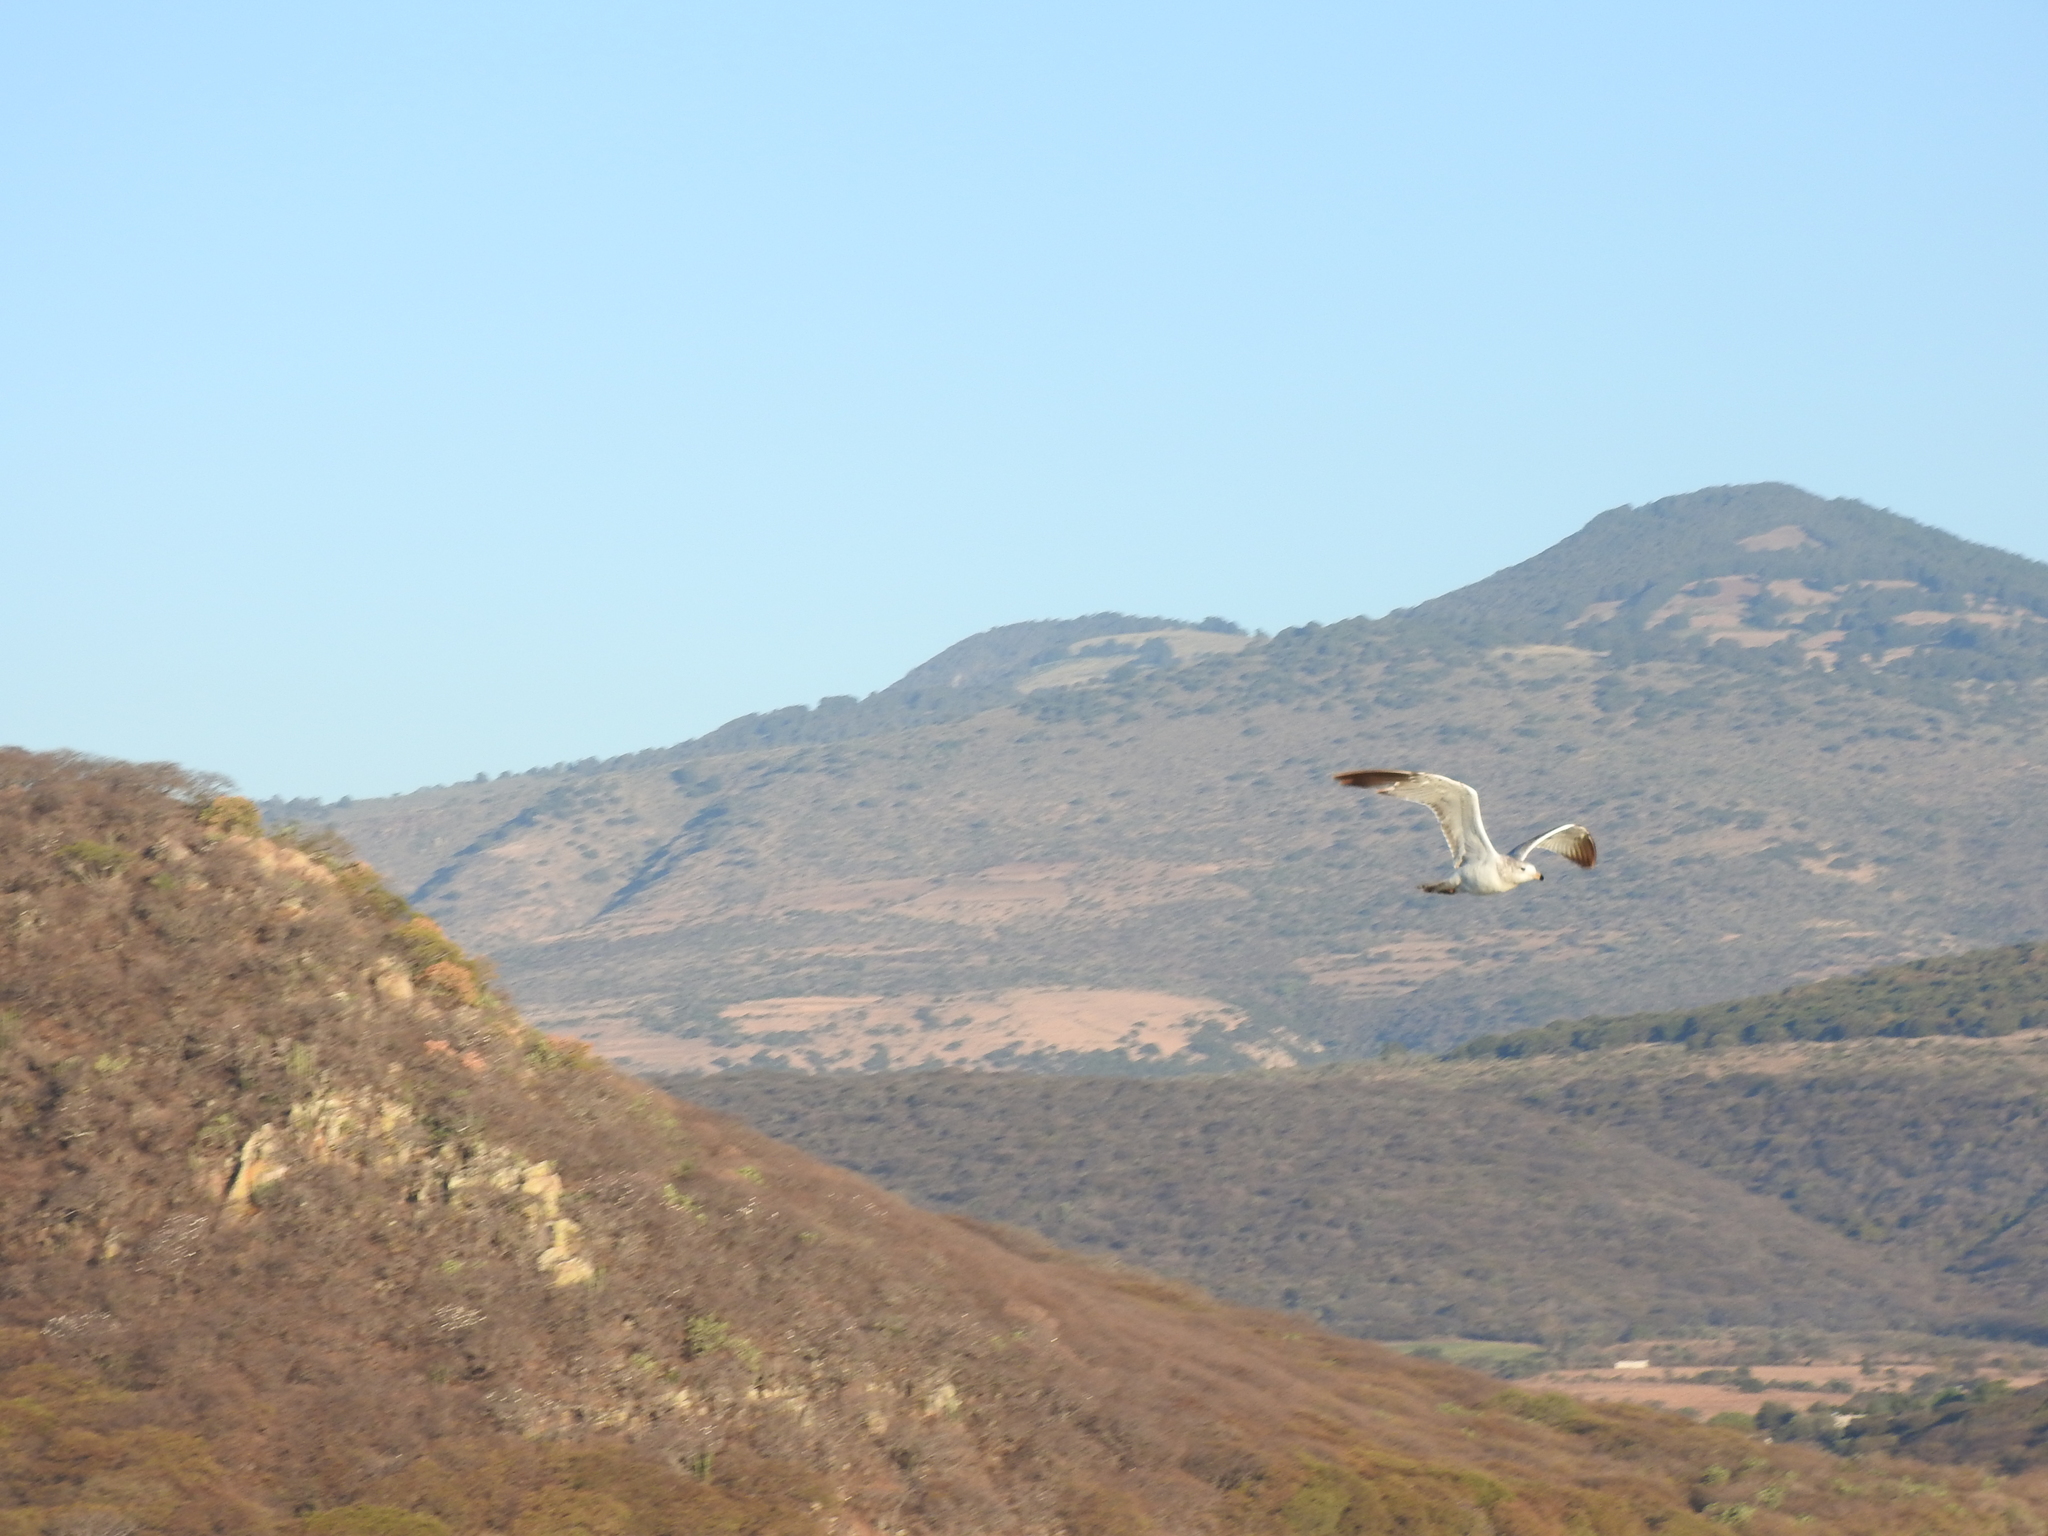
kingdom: Animalia
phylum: Chordata
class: Aves
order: Charadriiformes
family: Laridae
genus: Larus
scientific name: Larus delawarensis
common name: Ring-billed gull
